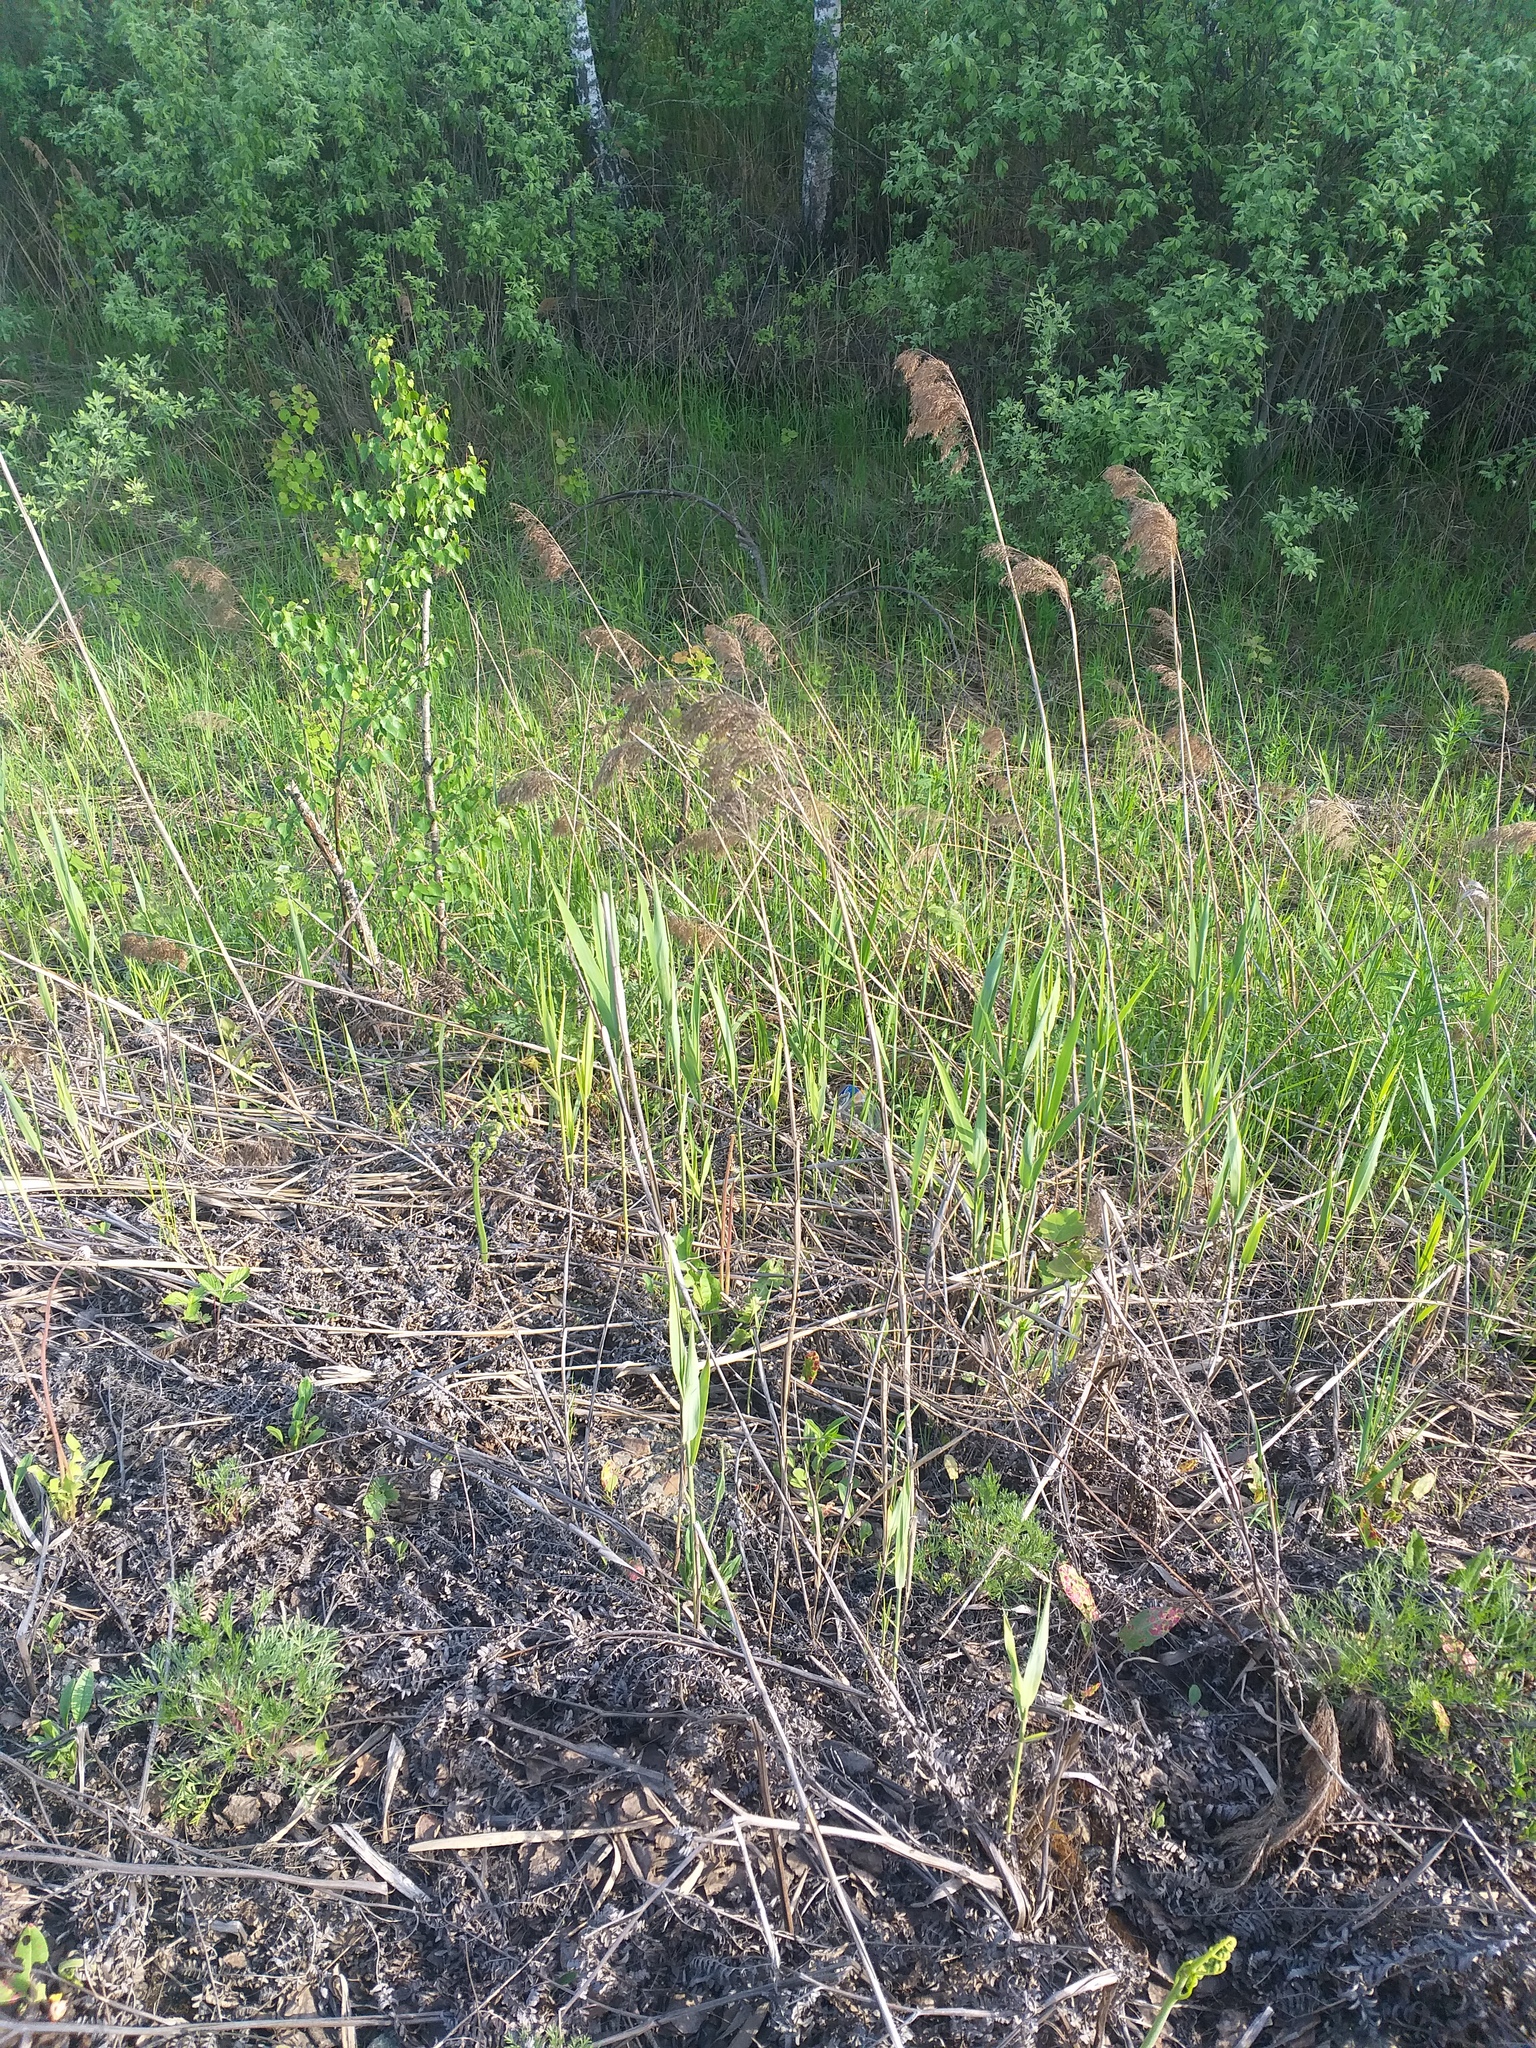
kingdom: Plantae
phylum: Tracheophyta
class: Liliopsida
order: Poales
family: Poaceae
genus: Phragmites
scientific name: Phragmites australis
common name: Common reed
